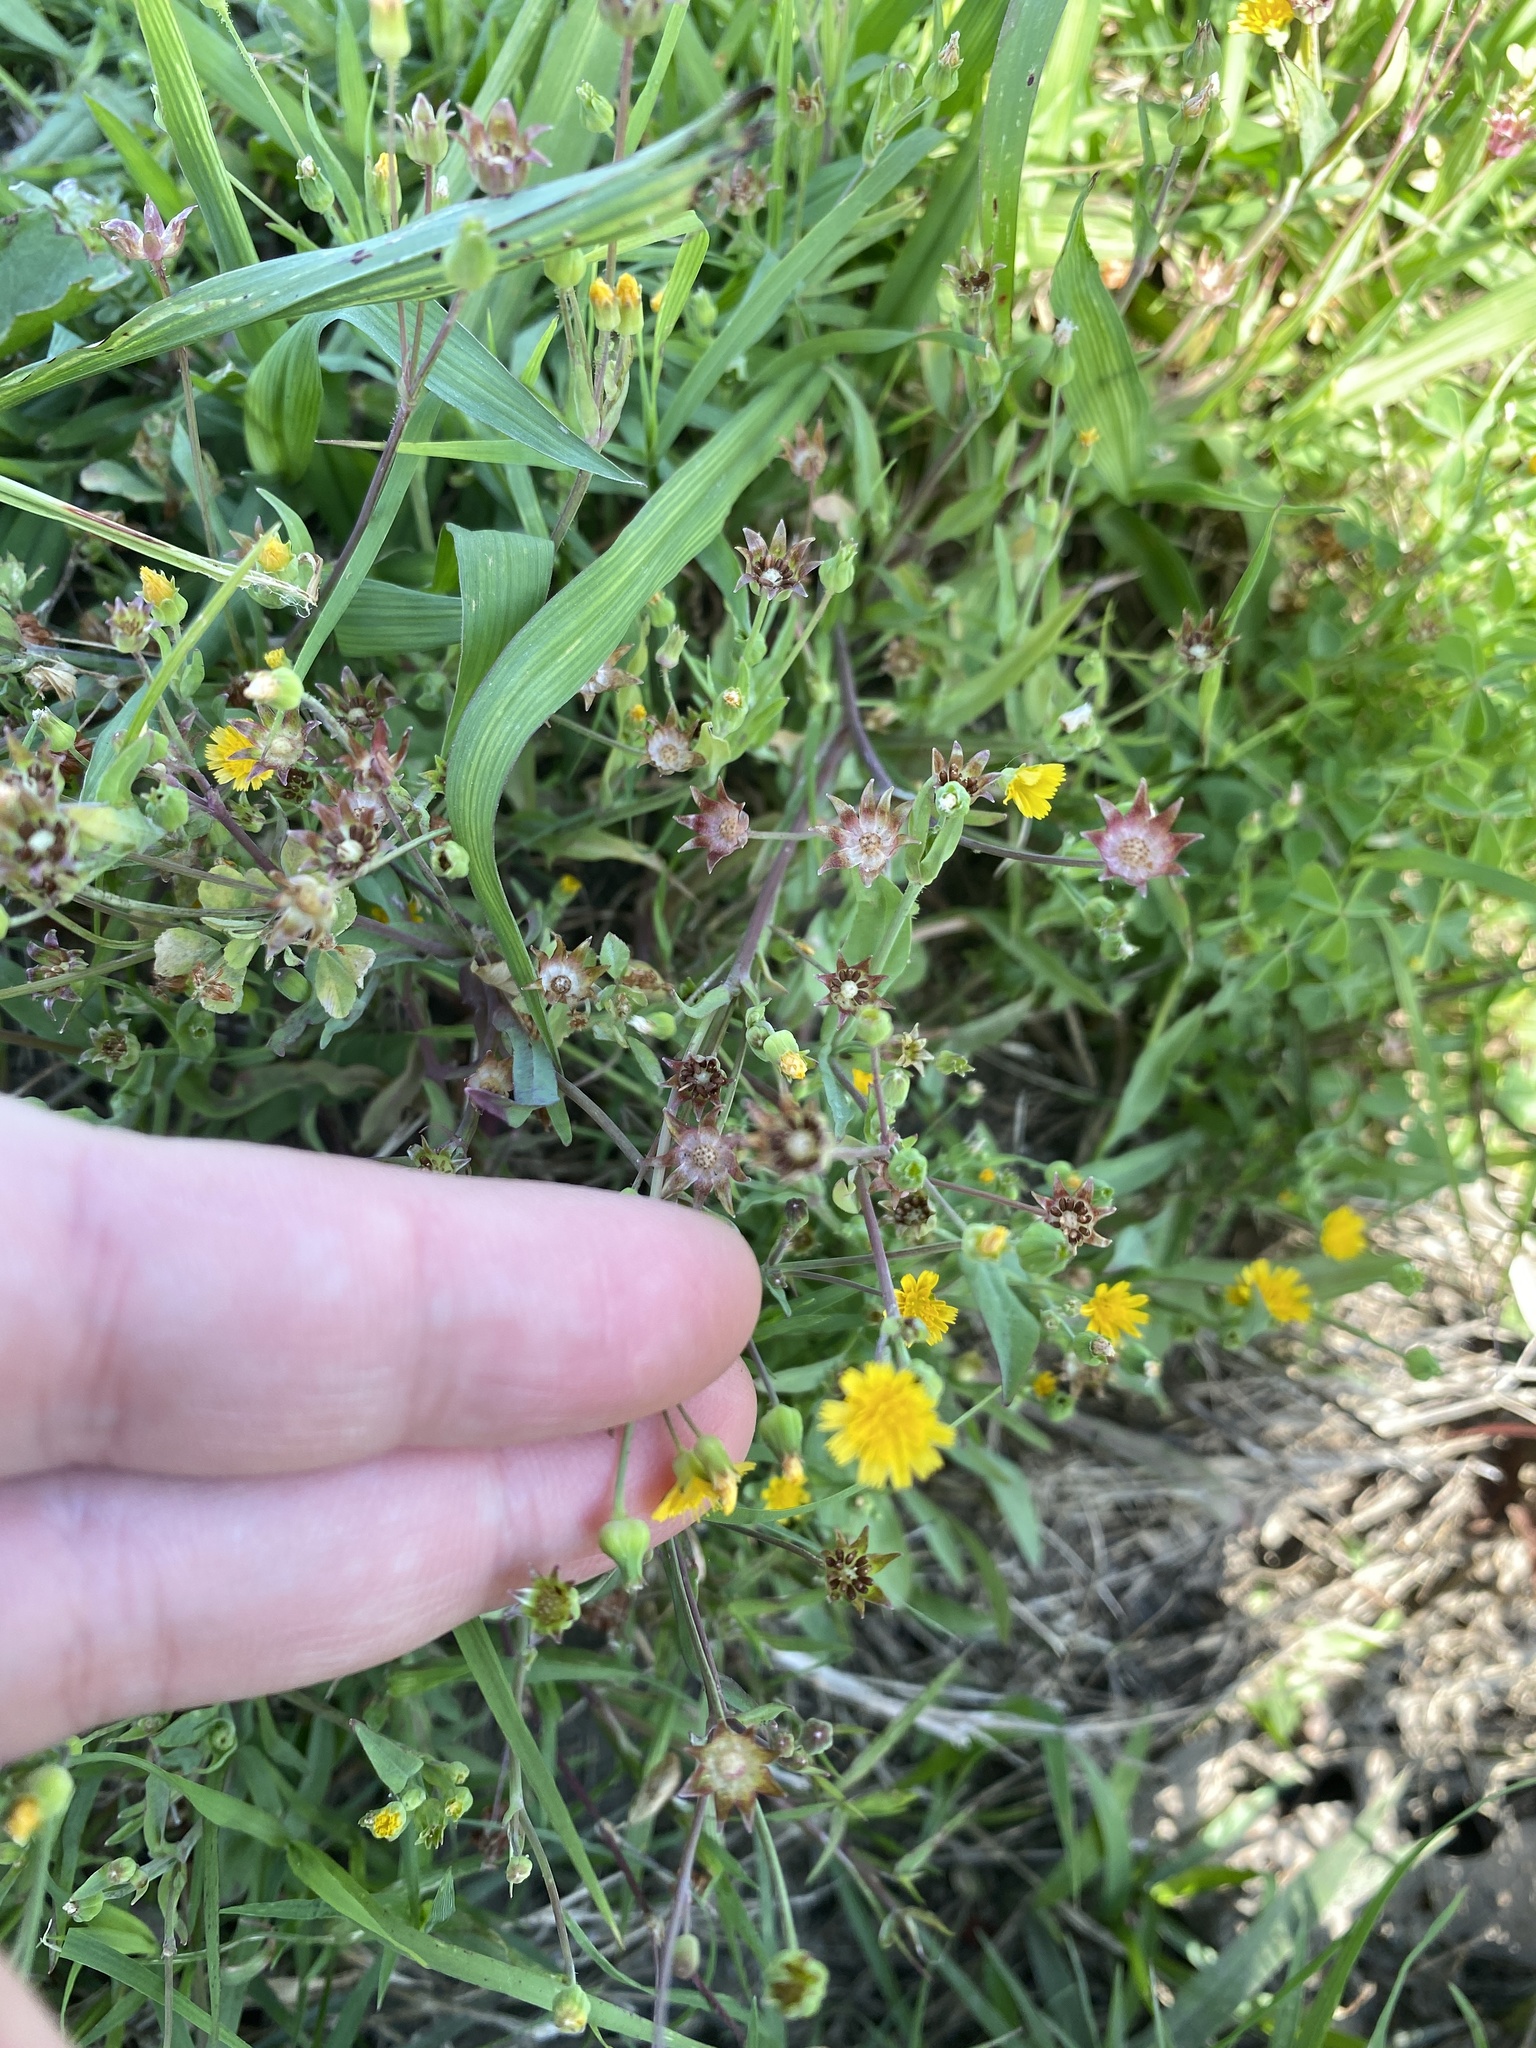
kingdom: Plantae
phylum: Tracheophyta
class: Magnoliopsida
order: Asterales
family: Asteraceae
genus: Krigia
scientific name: Krigia cespitosa
